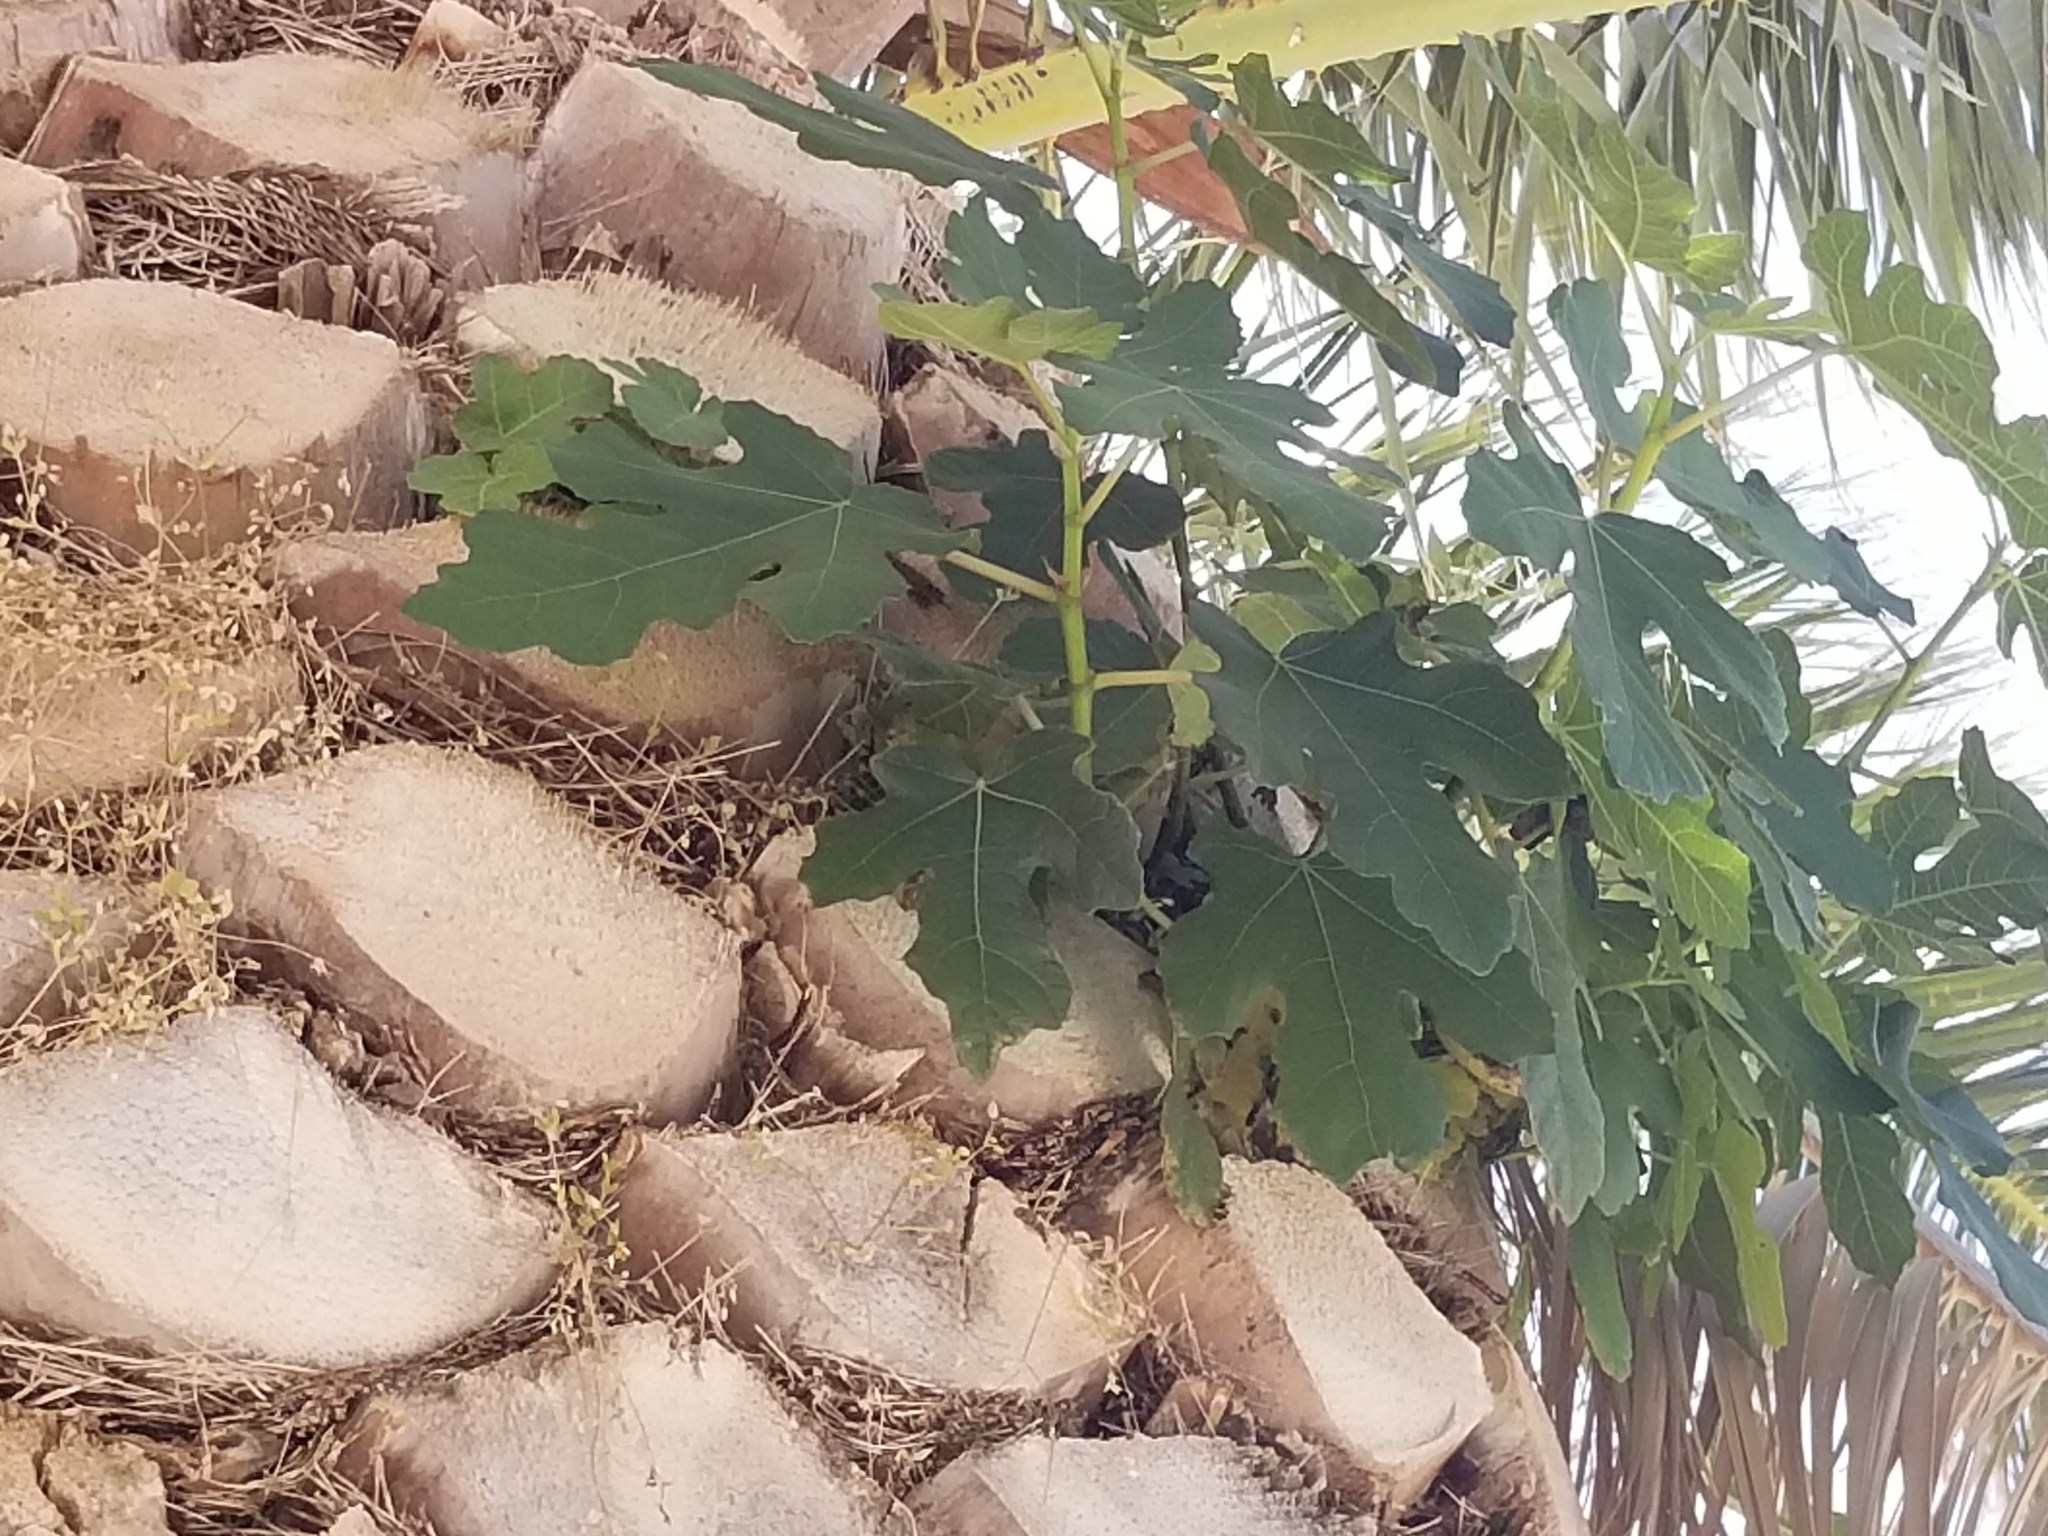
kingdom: Plantae
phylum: Tracheophyta
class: Magnoliopsida
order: Rosales
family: Moraceae
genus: Ficus
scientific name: Ficus carica
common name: Fig
